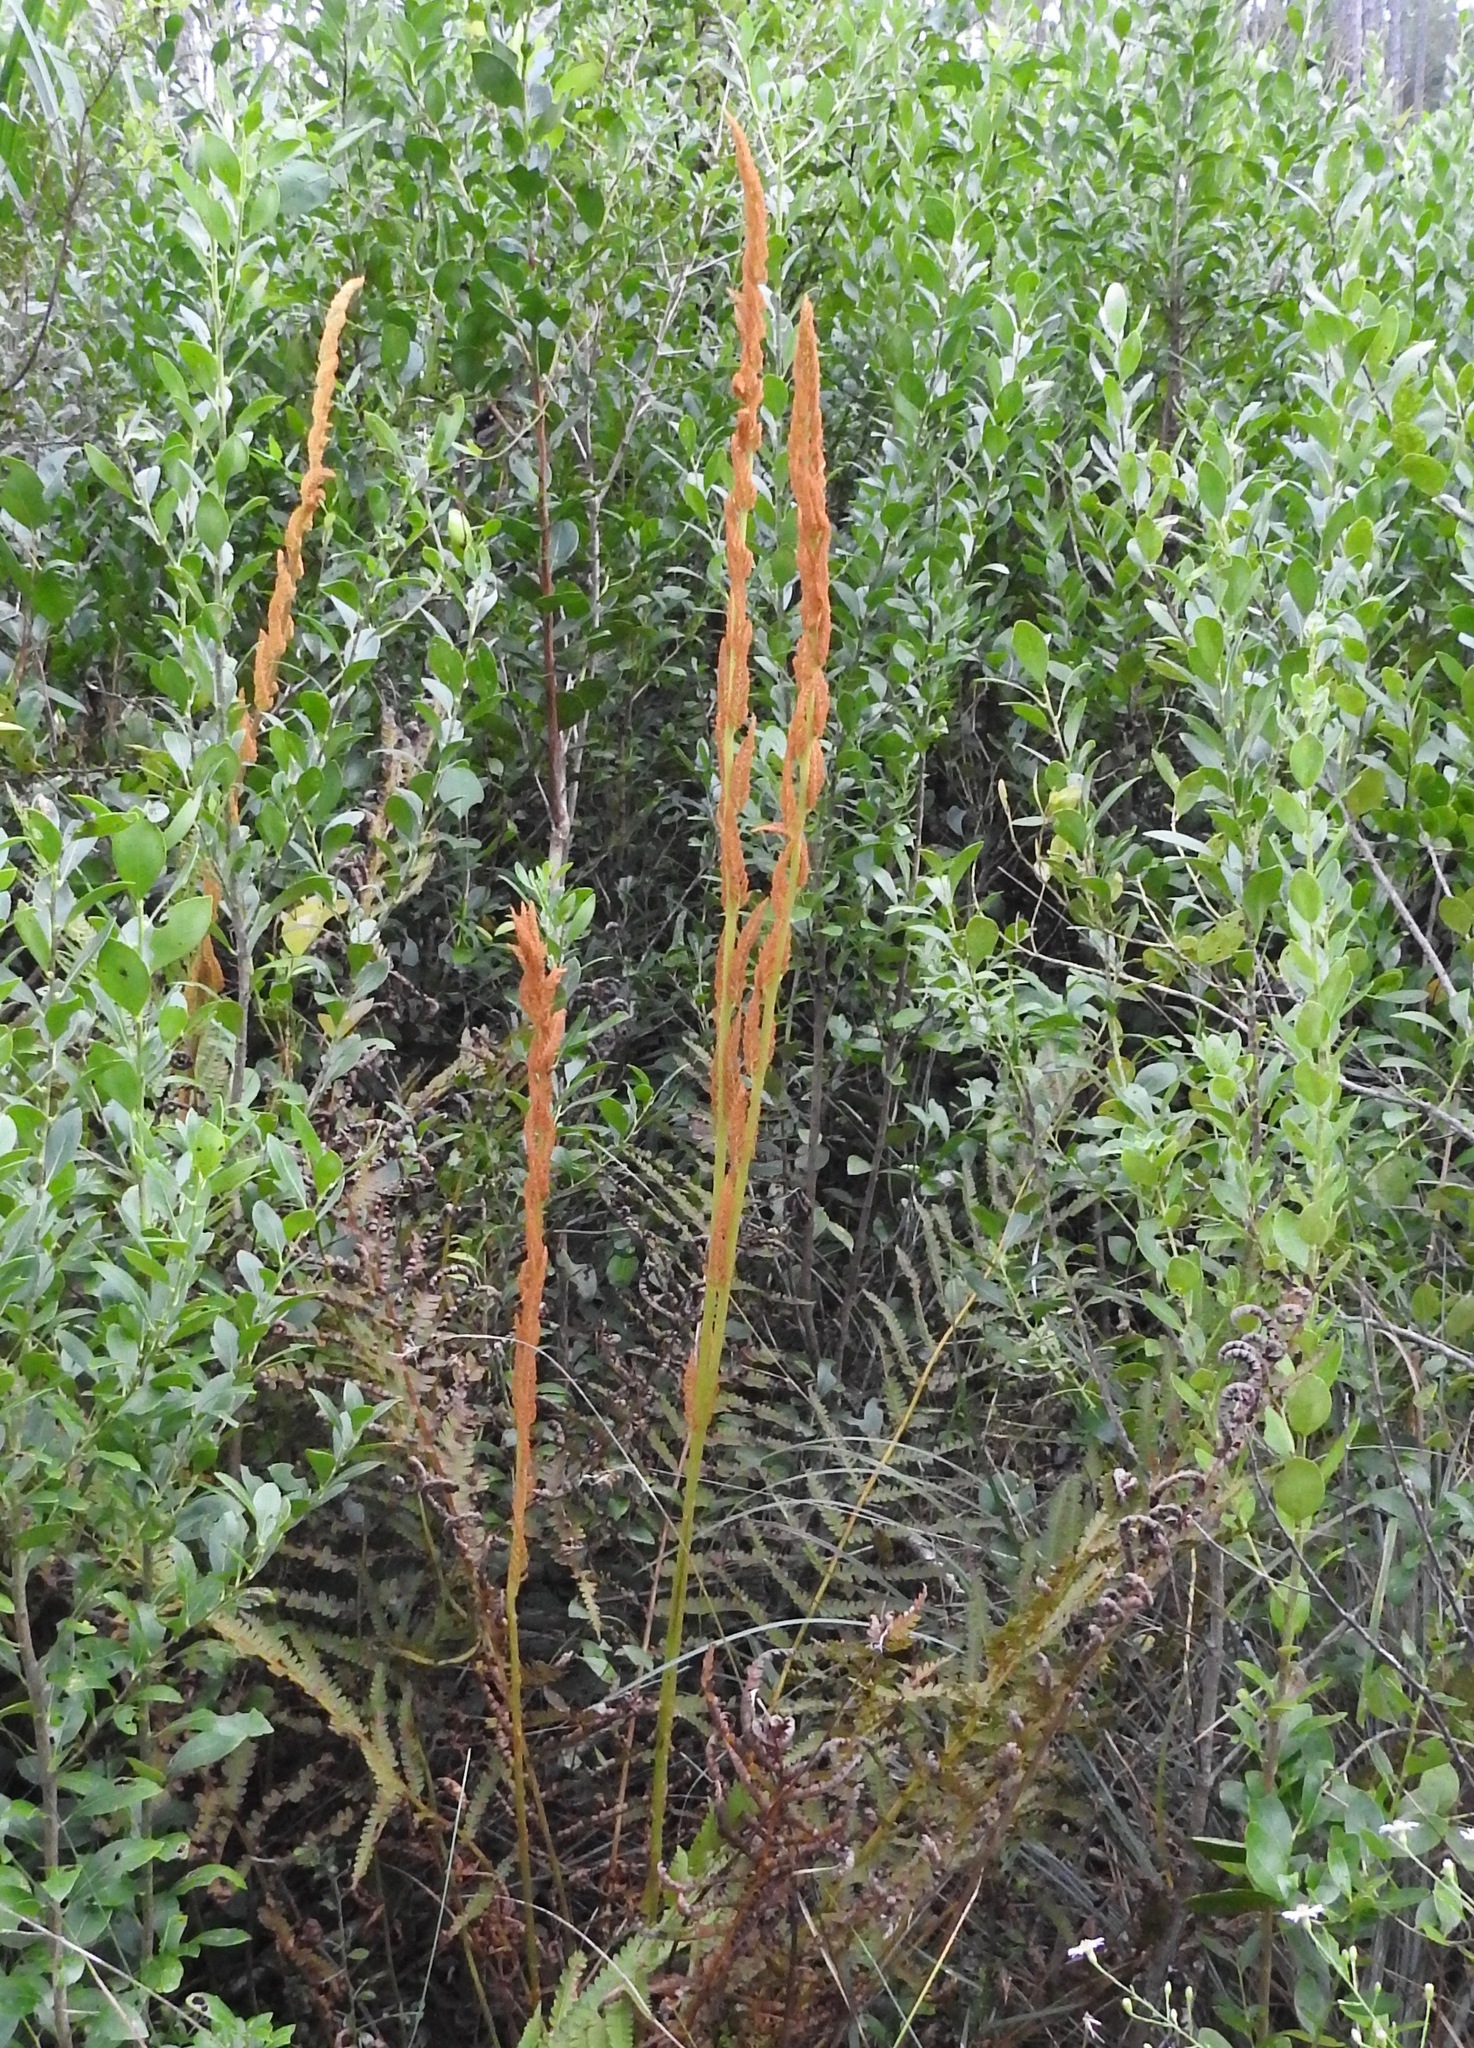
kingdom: Plantae
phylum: Tracheophyta
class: Polypodiopsida
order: Osmundales
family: Osmundaceae
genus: Osmundastrum
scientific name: Osmundastrum cinnamomeum
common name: Cinnamon fern
